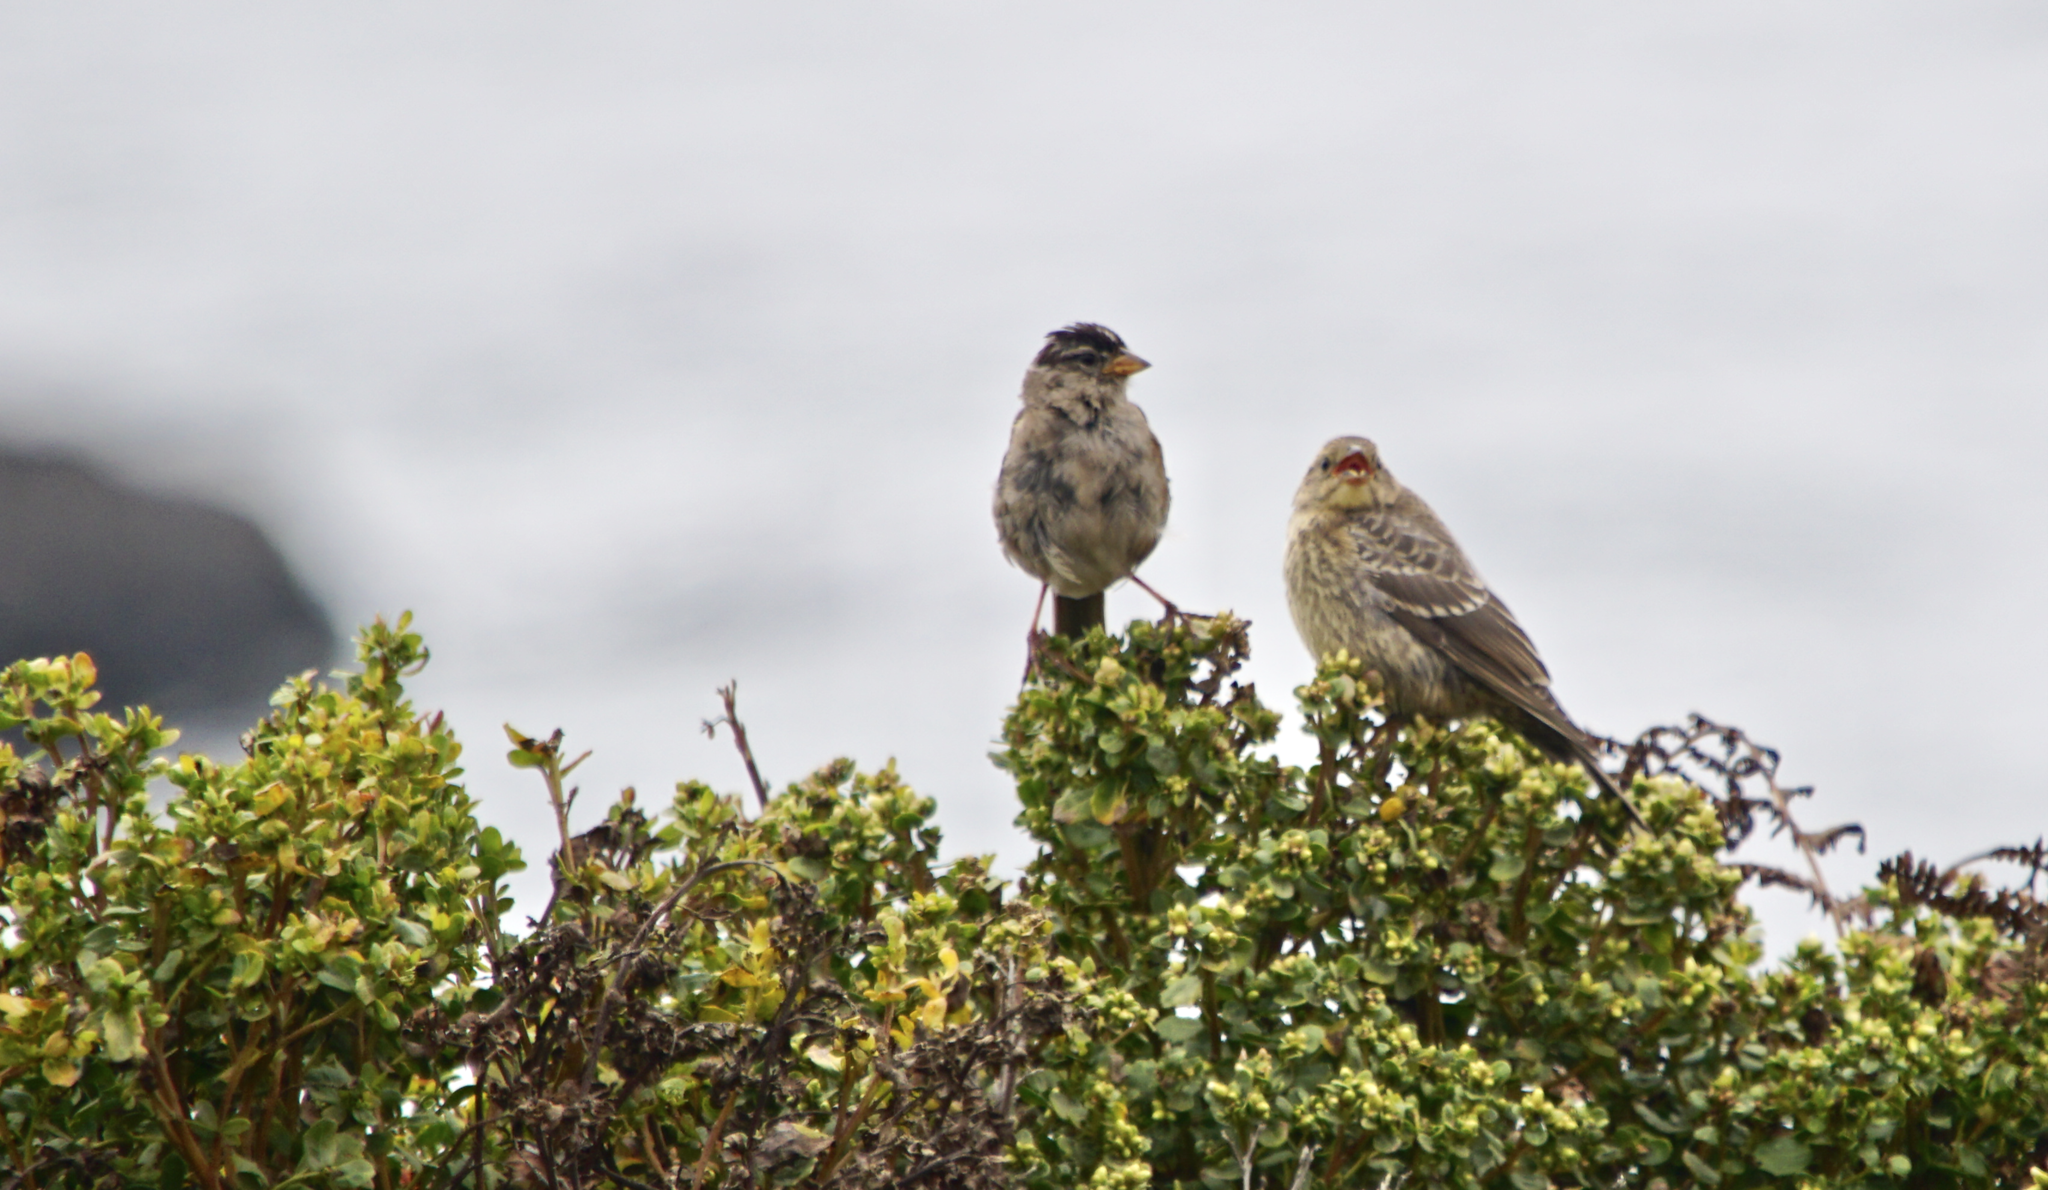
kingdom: Animalia
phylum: Chordata
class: Aves
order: Passeriformes
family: Passerellidae
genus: Zonotrichia
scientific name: Zonotrichia leucophrys
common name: White-crowned sparrow
